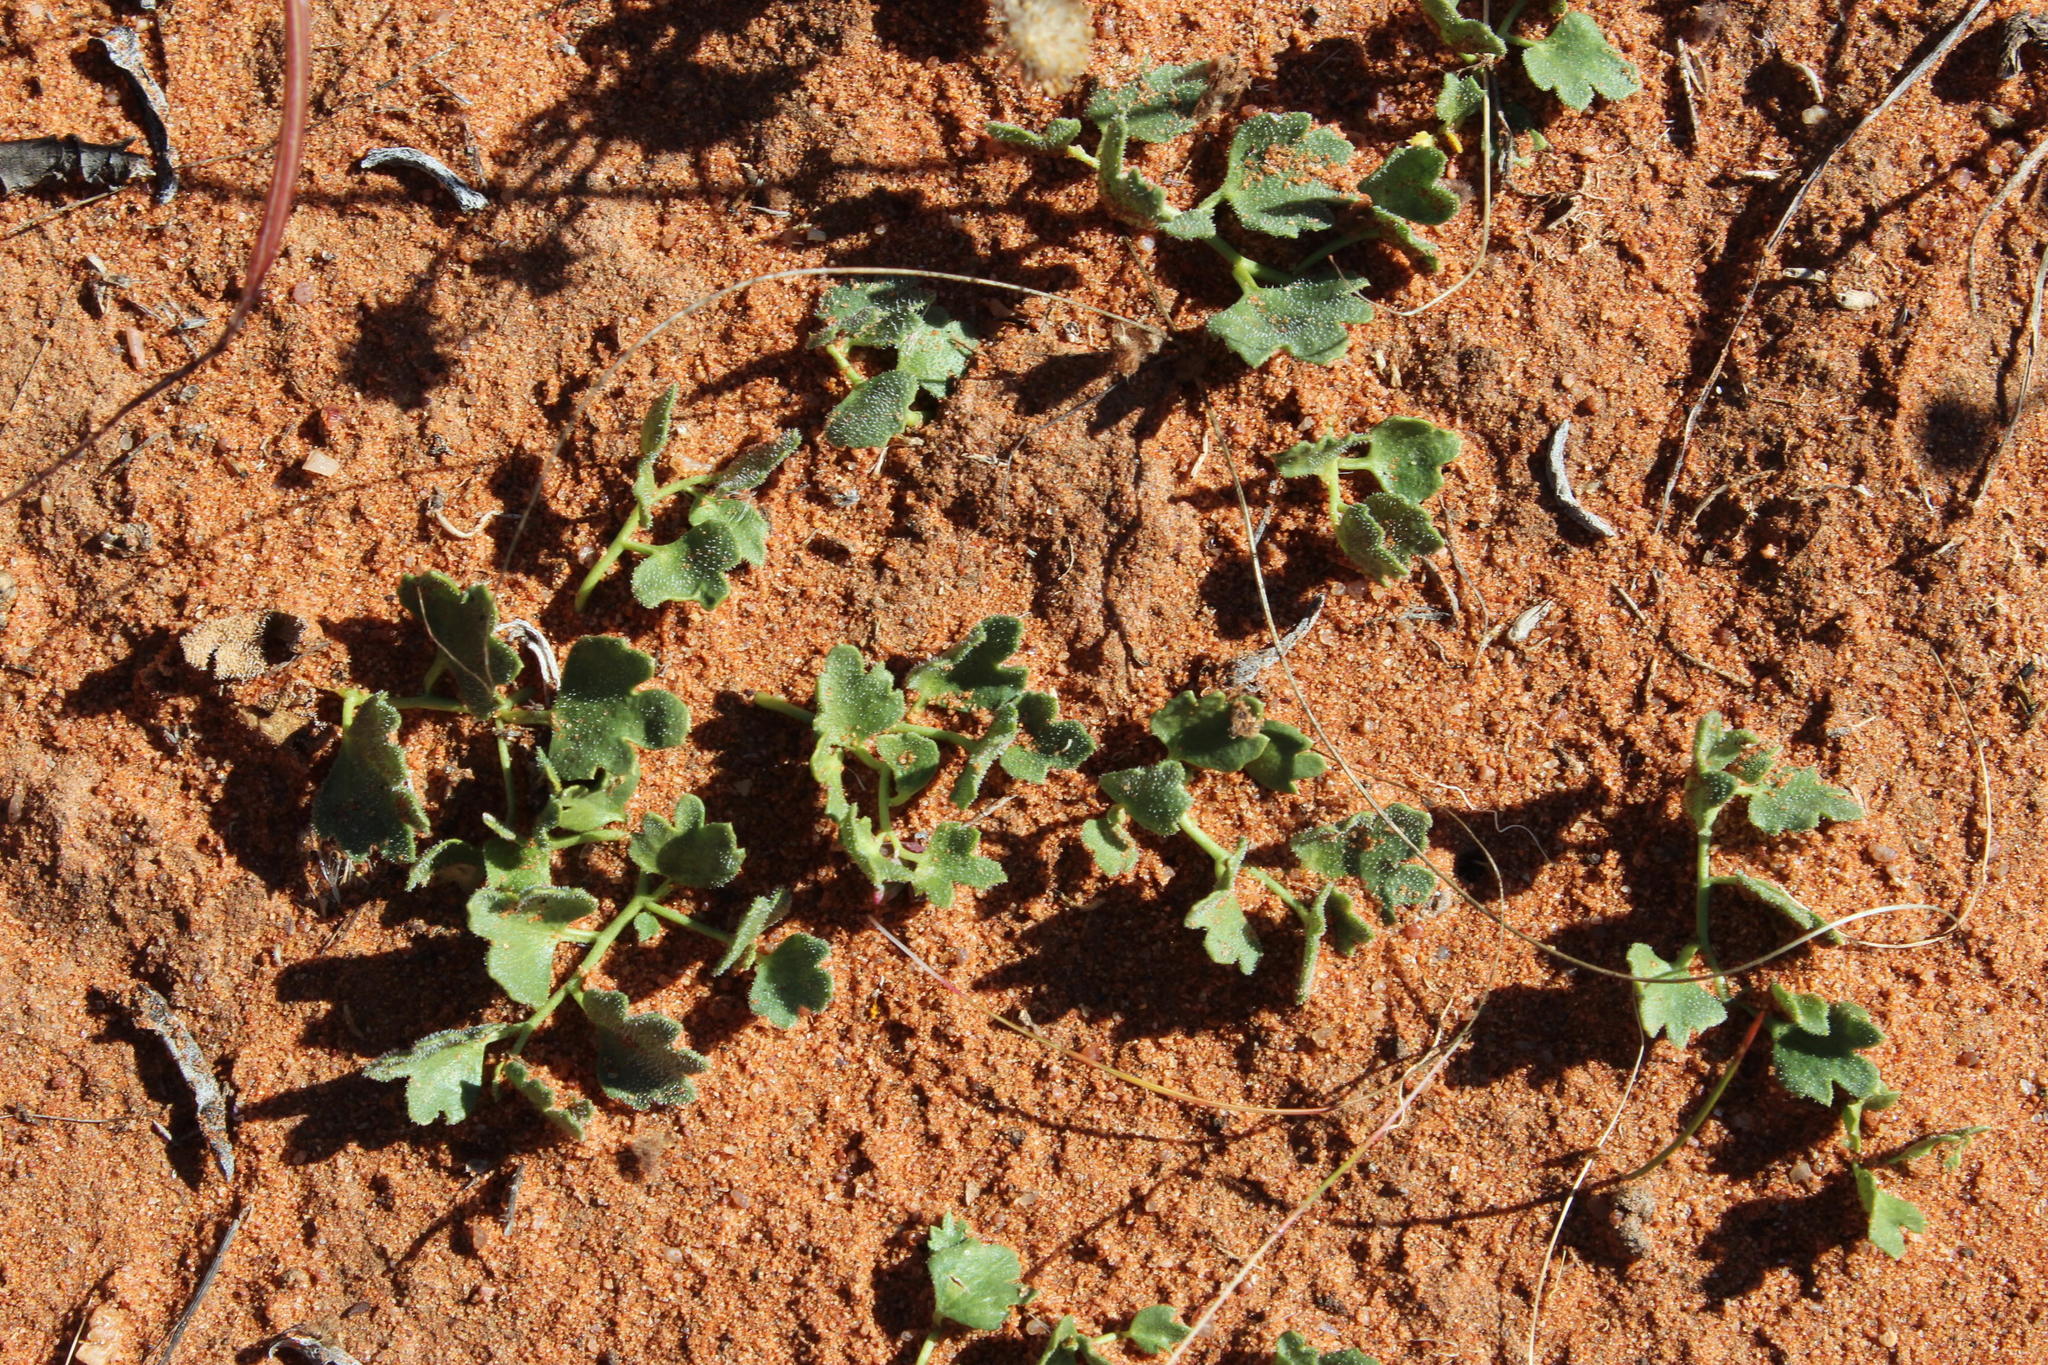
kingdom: Plantae
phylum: Tracheophyta
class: Magnoliopsida
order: Cucurbitales
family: Cucurbitaceae
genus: Kedrostis
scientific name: Kedrostis psammophila
